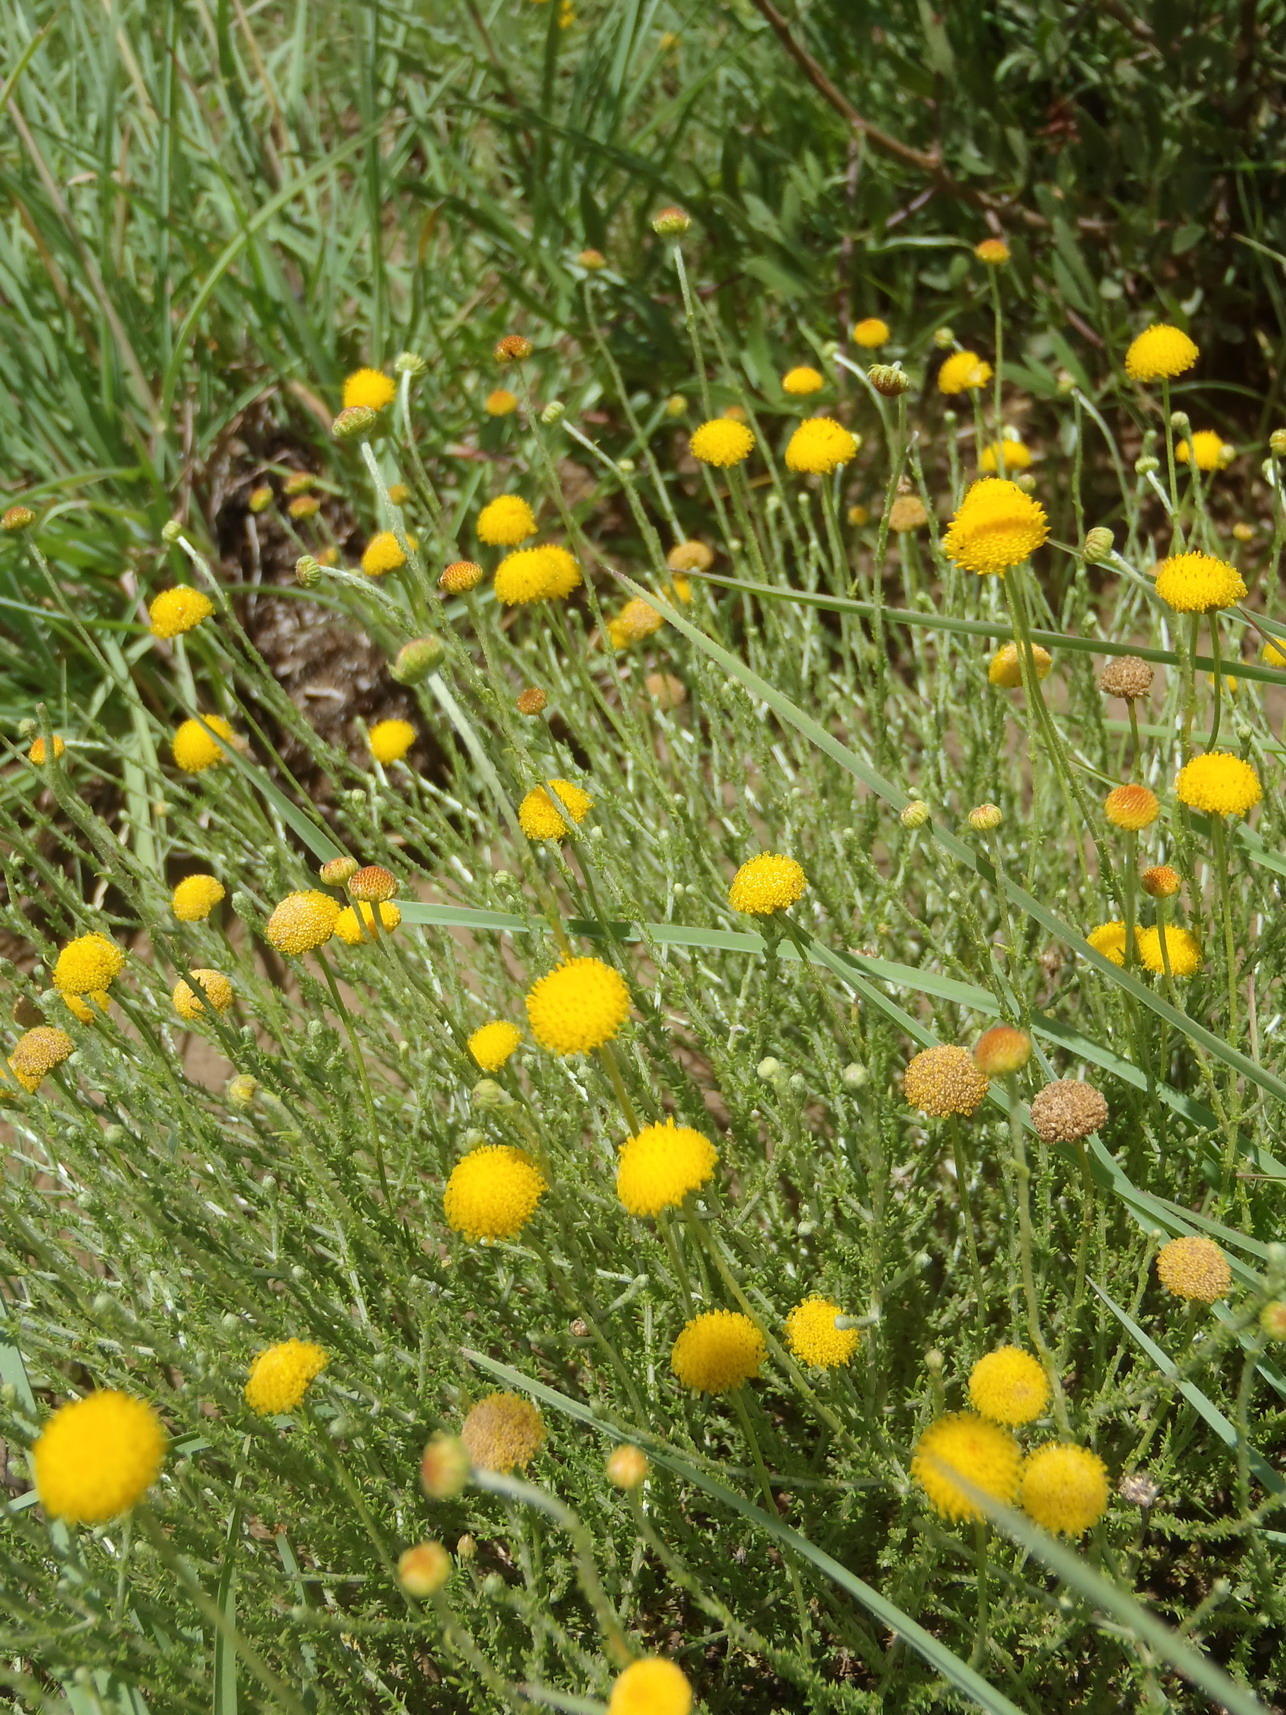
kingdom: Plantae
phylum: Tracheophyta
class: Magnoliopsida
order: Asterales
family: Asteraceae
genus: Pentzia
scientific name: Pentzia globosa
